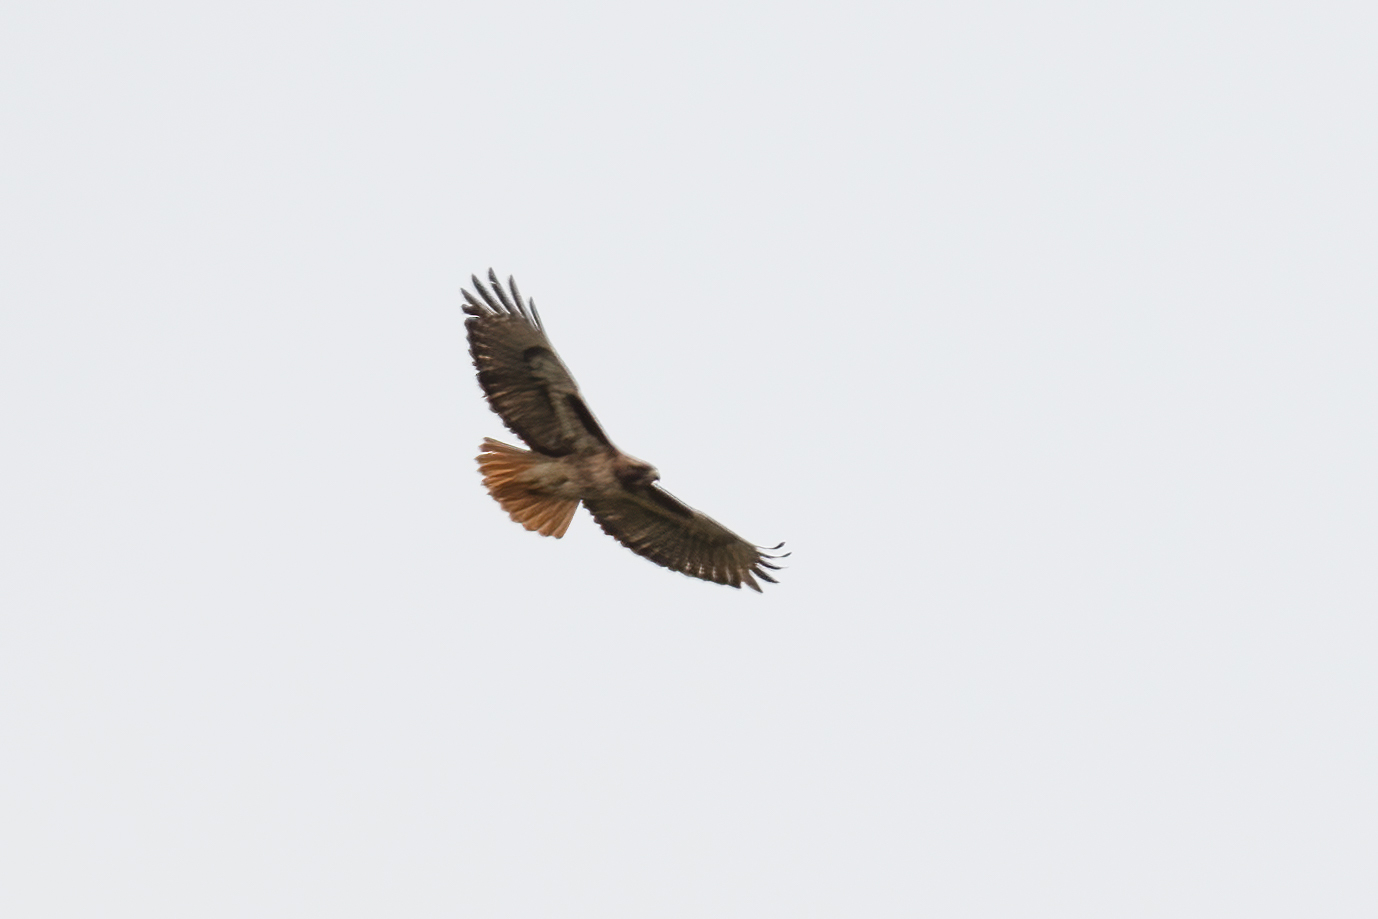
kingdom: Animalia
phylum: Chordata
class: Aves
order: Accipitriformes
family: Accipitridae
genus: Buteo
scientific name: Buteo jamaicensis
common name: Red-tailed hawk
